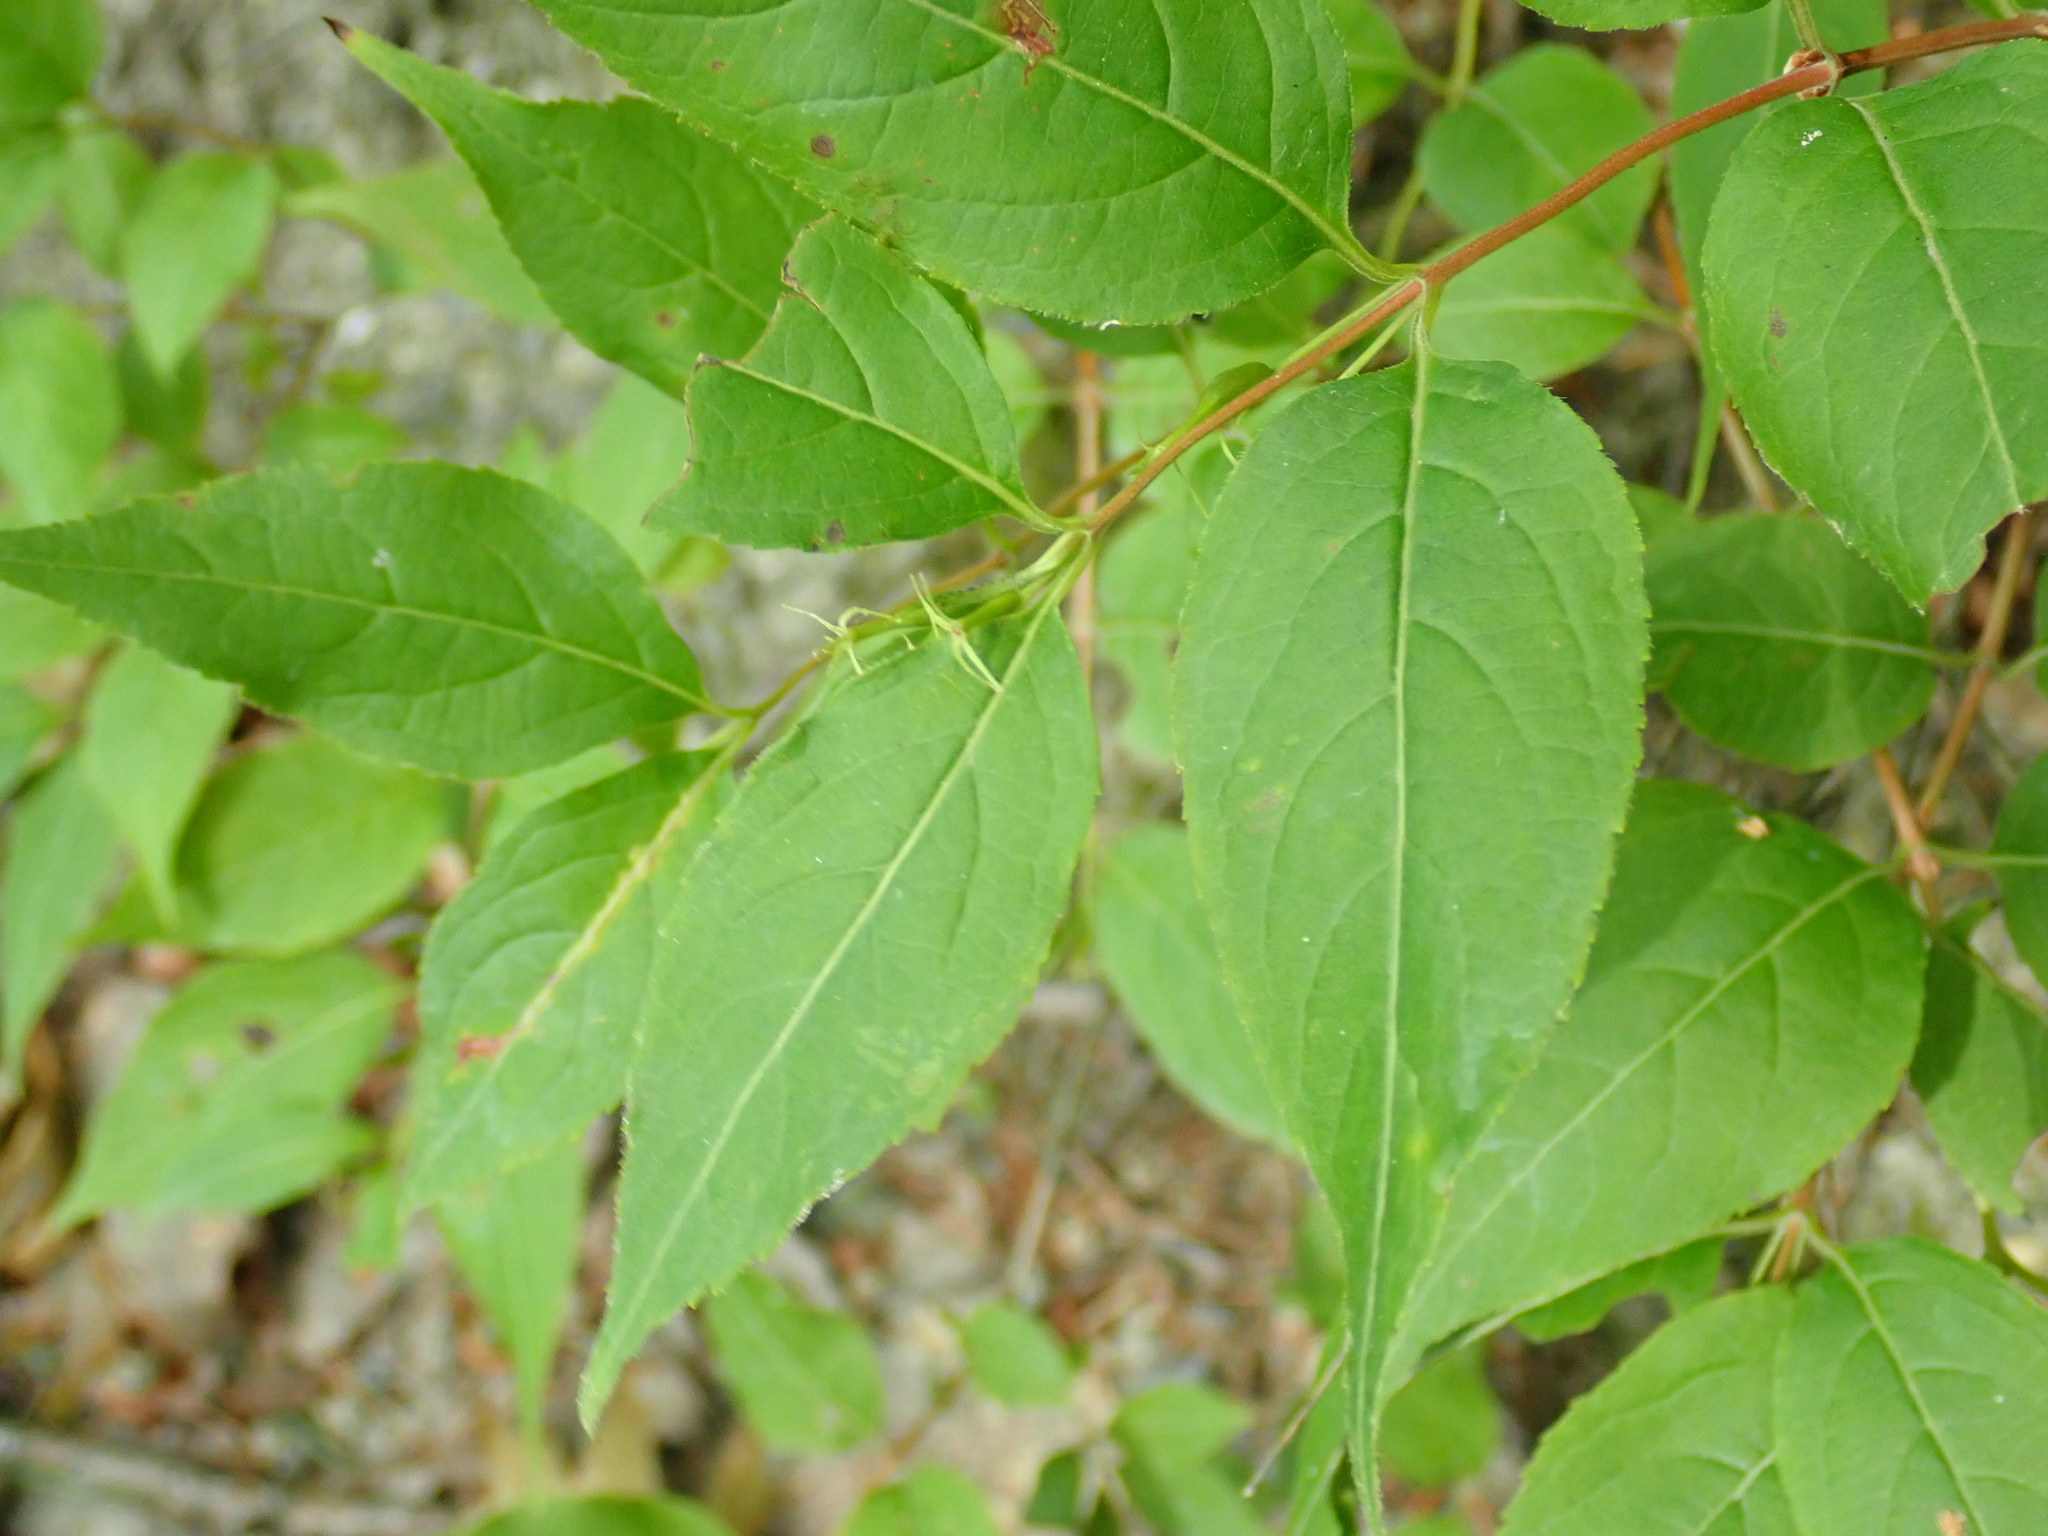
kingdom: Plantae
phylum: Tracheophyta
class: Magnoliopsida
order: Dipsacales
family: Caprifoliaceae
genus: Diervilla
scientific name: Diervilla lonicera
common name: Bush-honeysuckle
